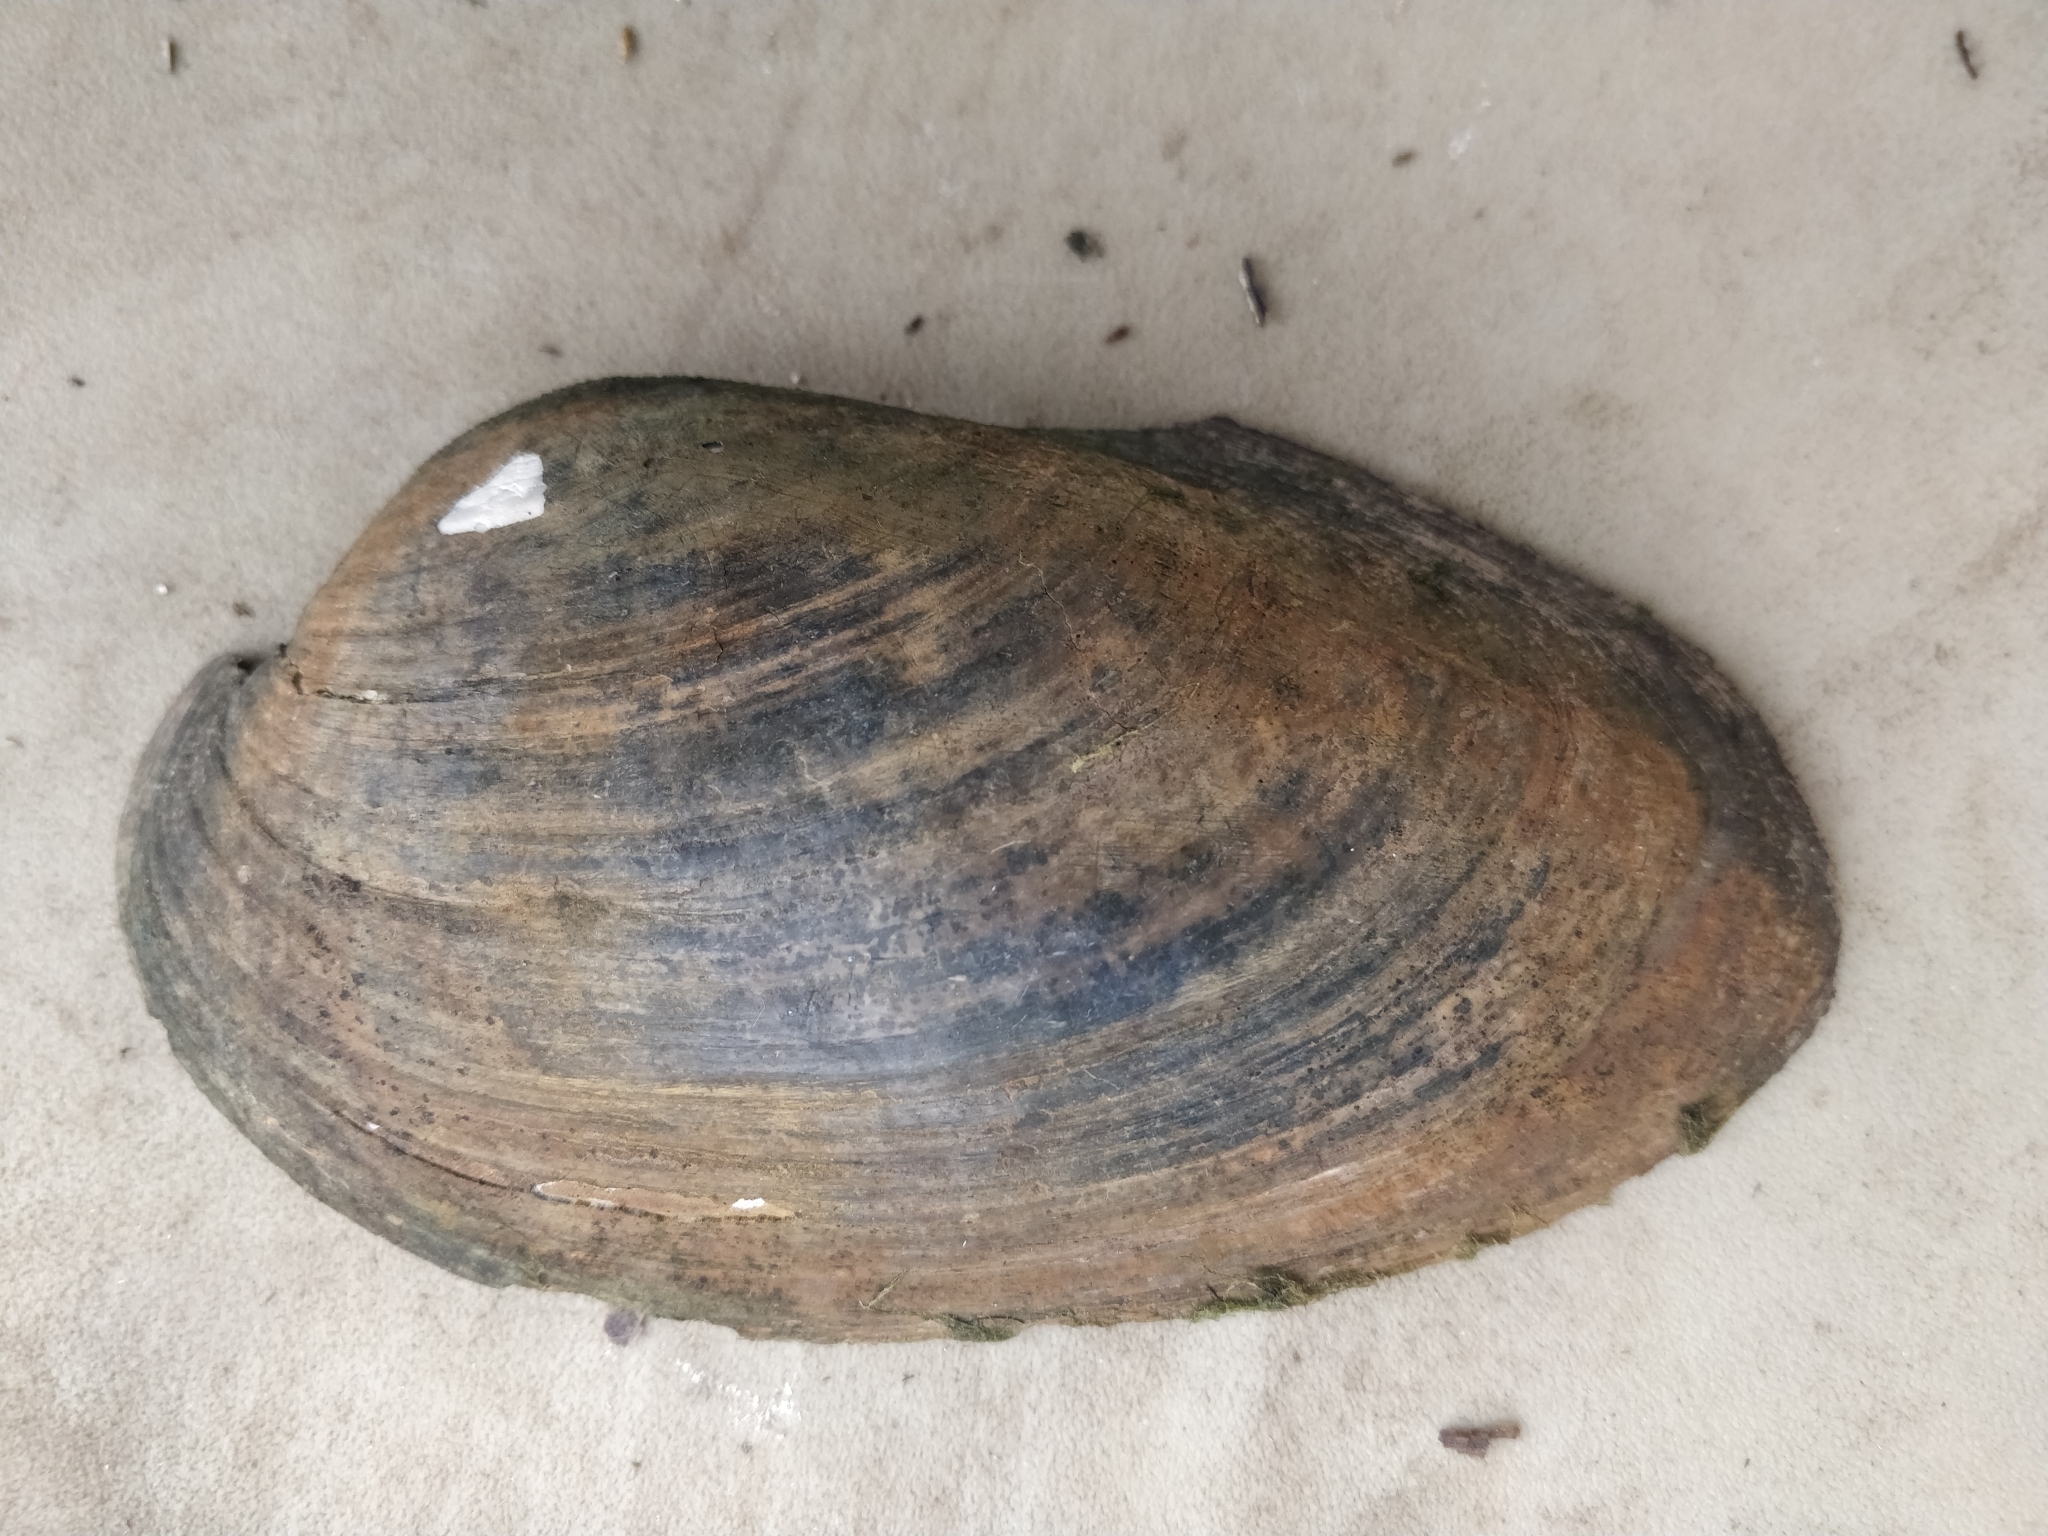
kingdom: Animalia
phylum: Mollusca
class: Bivalvia
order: Unionida
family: Unionidae
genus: Pyganodon
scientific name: Pyganodon grandis
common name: Giant floater
